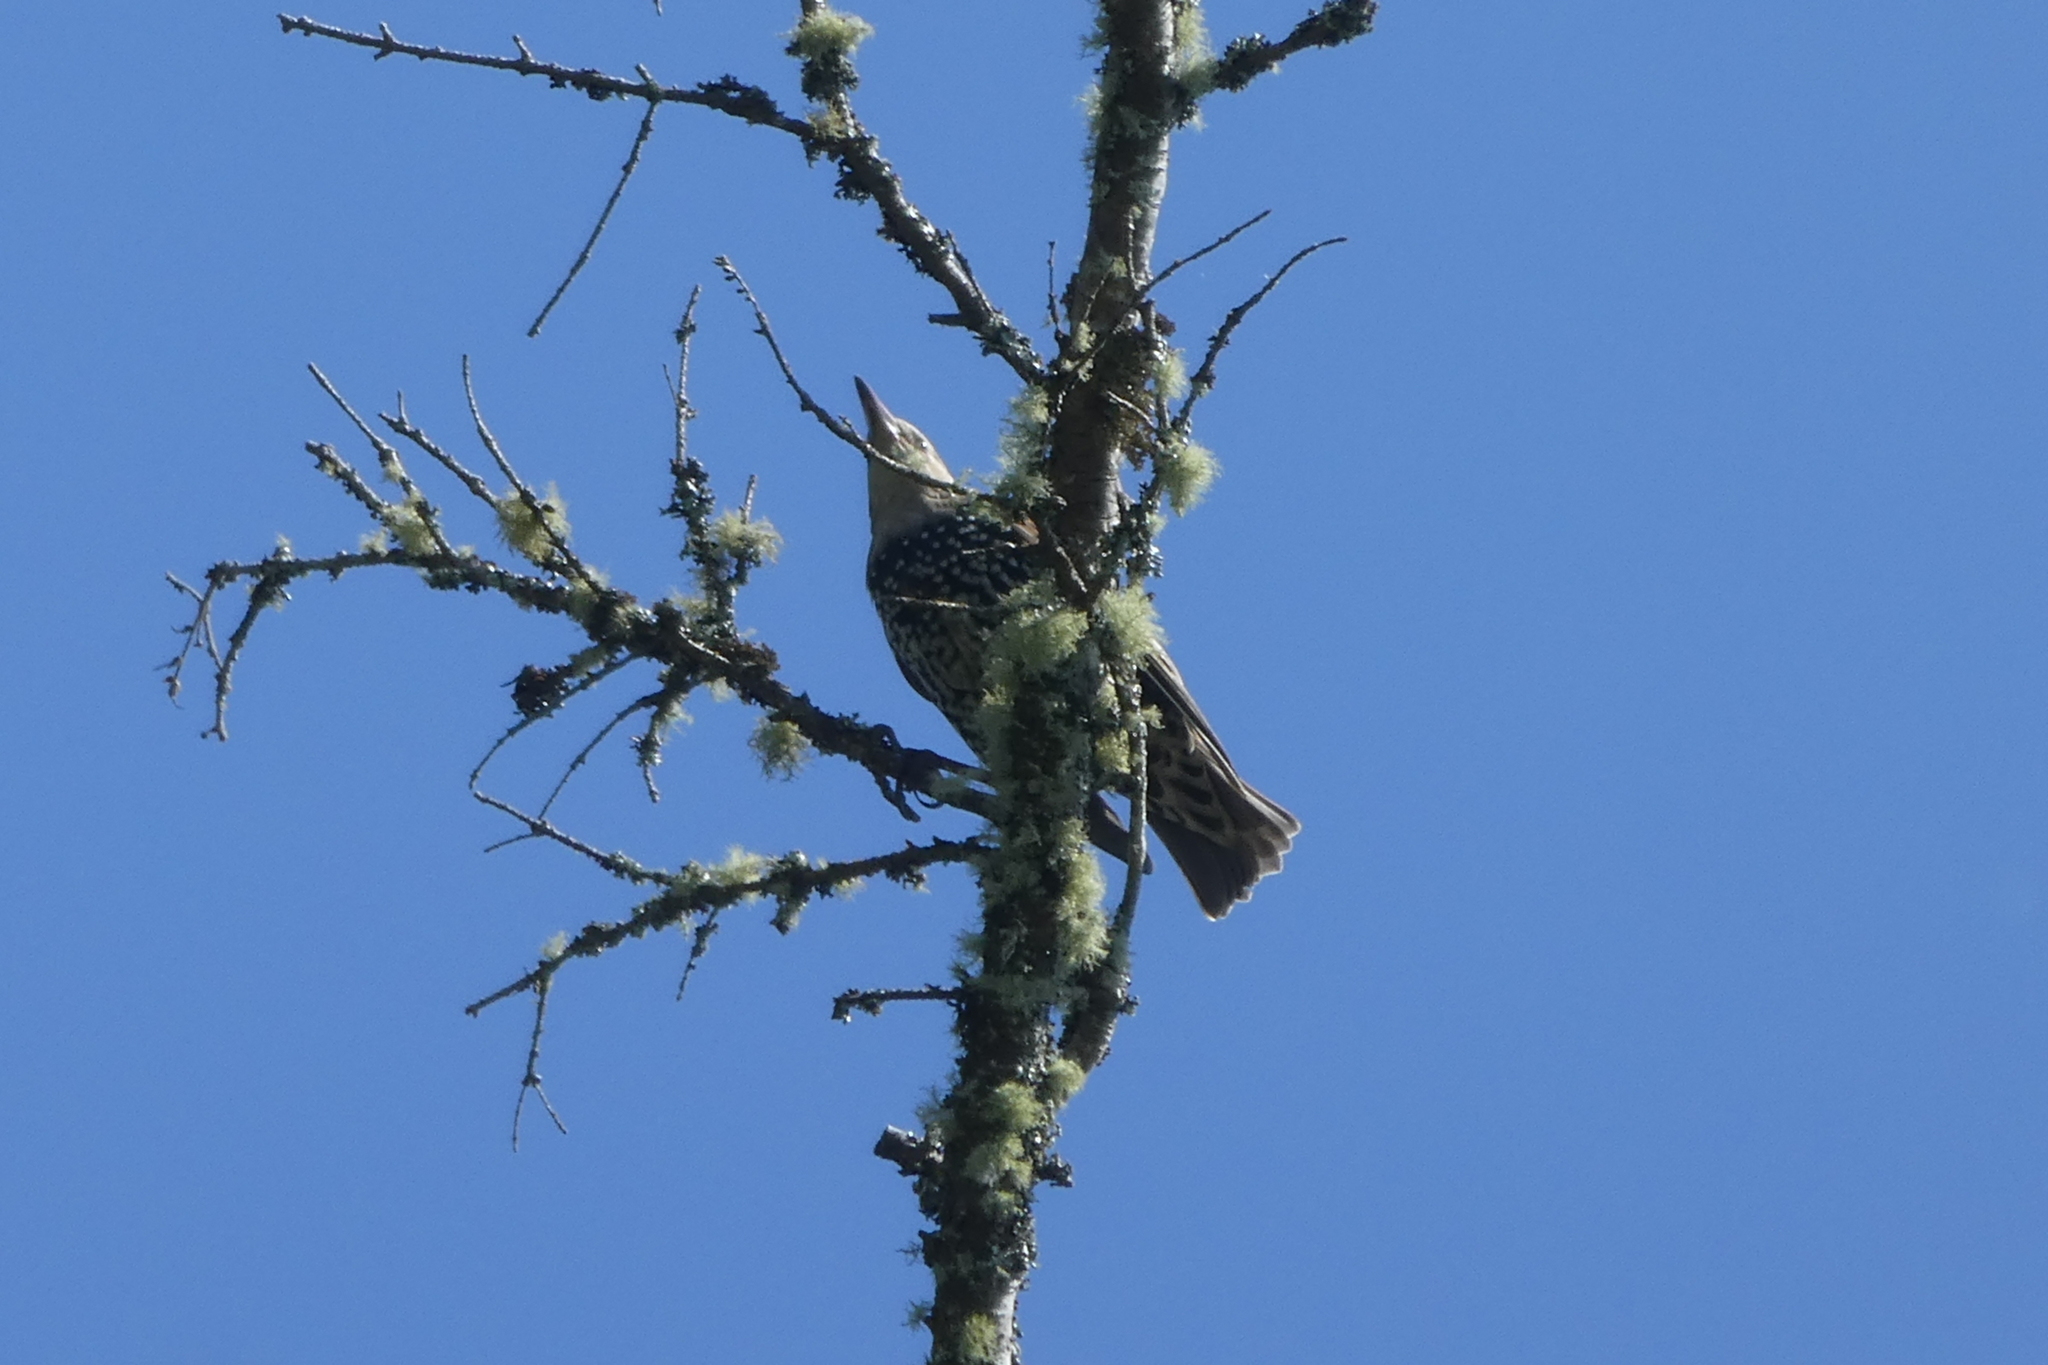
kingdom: Animalia
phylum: Chordata
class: Aves
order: Passeriformes
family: Sturnidae
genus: Sturnus
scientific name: Sturnus vulgaris
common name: Common starling
